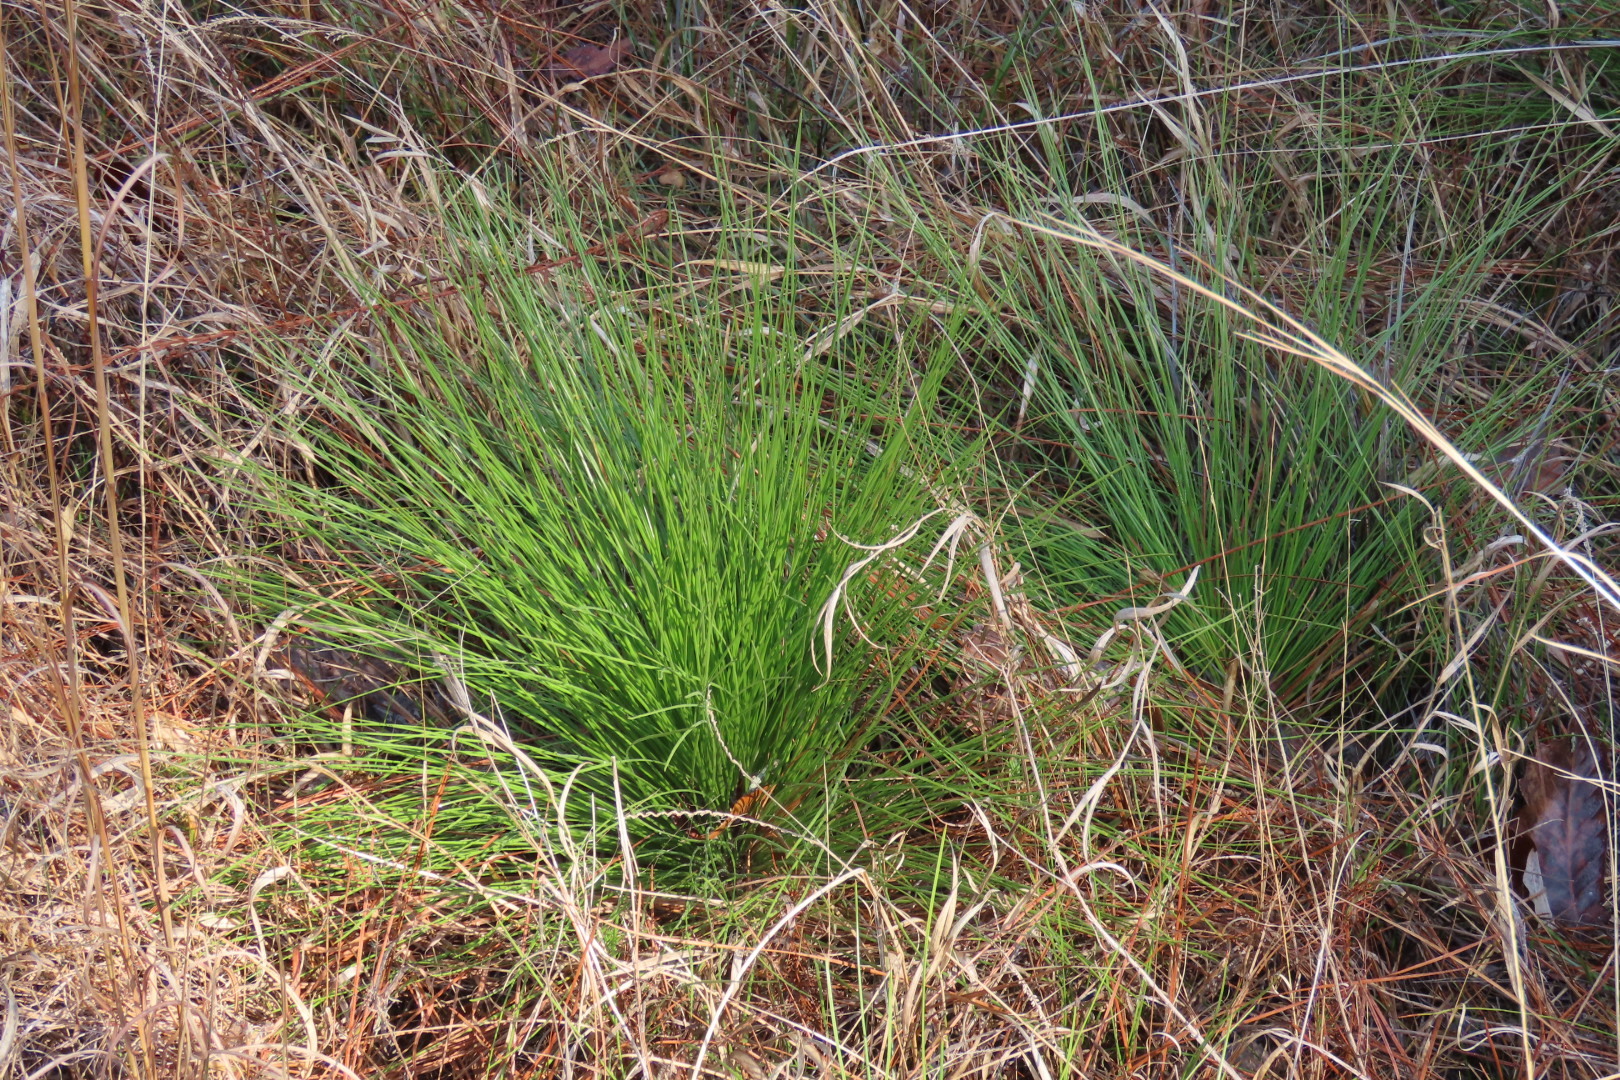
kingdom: Plantae
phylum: Tracheophyta
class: Pinopsida
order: Pinales
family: Pinaceae
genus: Pinus
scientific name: Pinus palustris
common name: Longleaf pine
